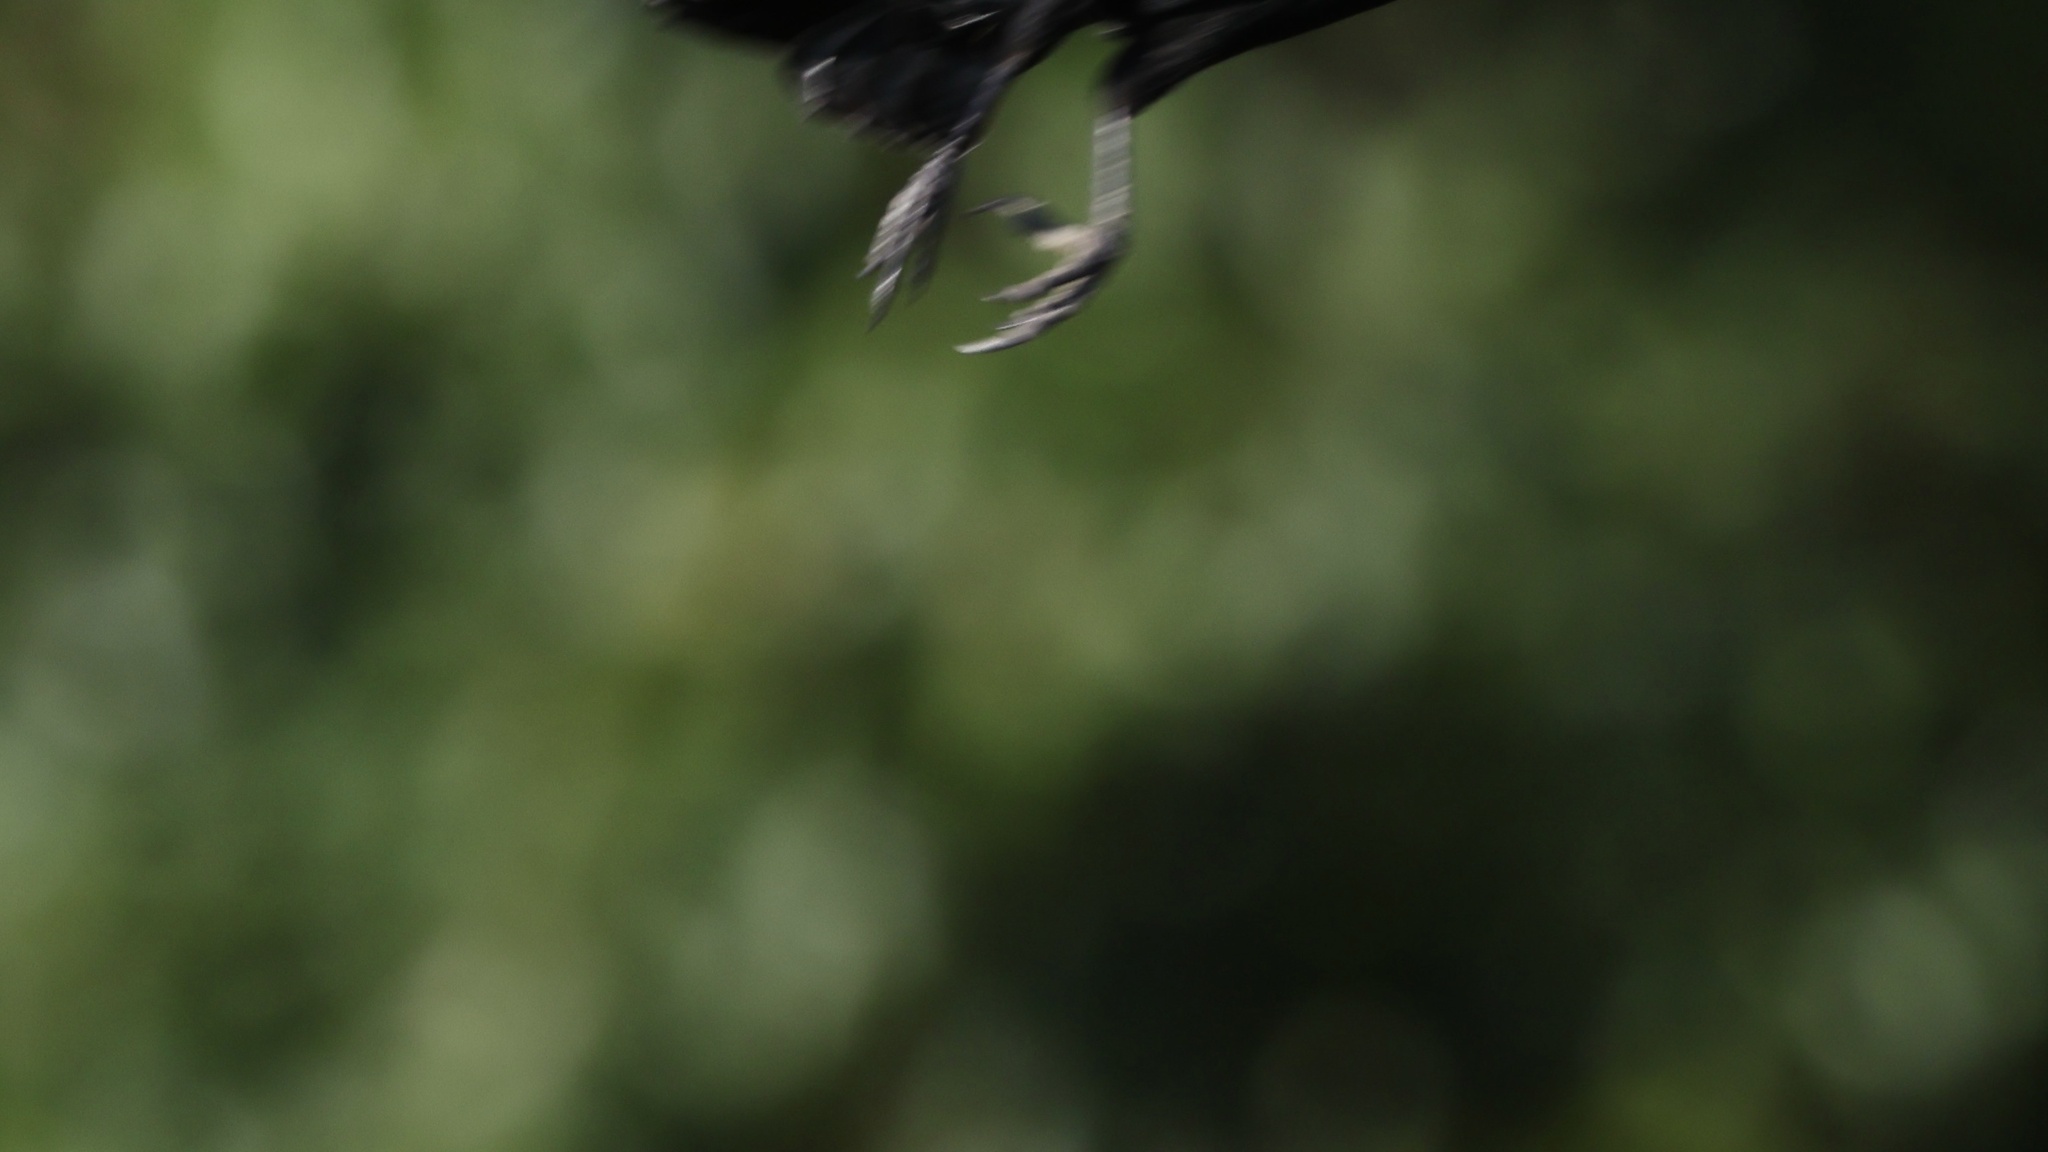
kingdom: Animalia
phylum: Chordata
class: Aves
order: Passeriformes
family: Icteridae
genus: Agelaius
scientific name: Agelaius phoeniceus
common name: Red-winged blackbird
